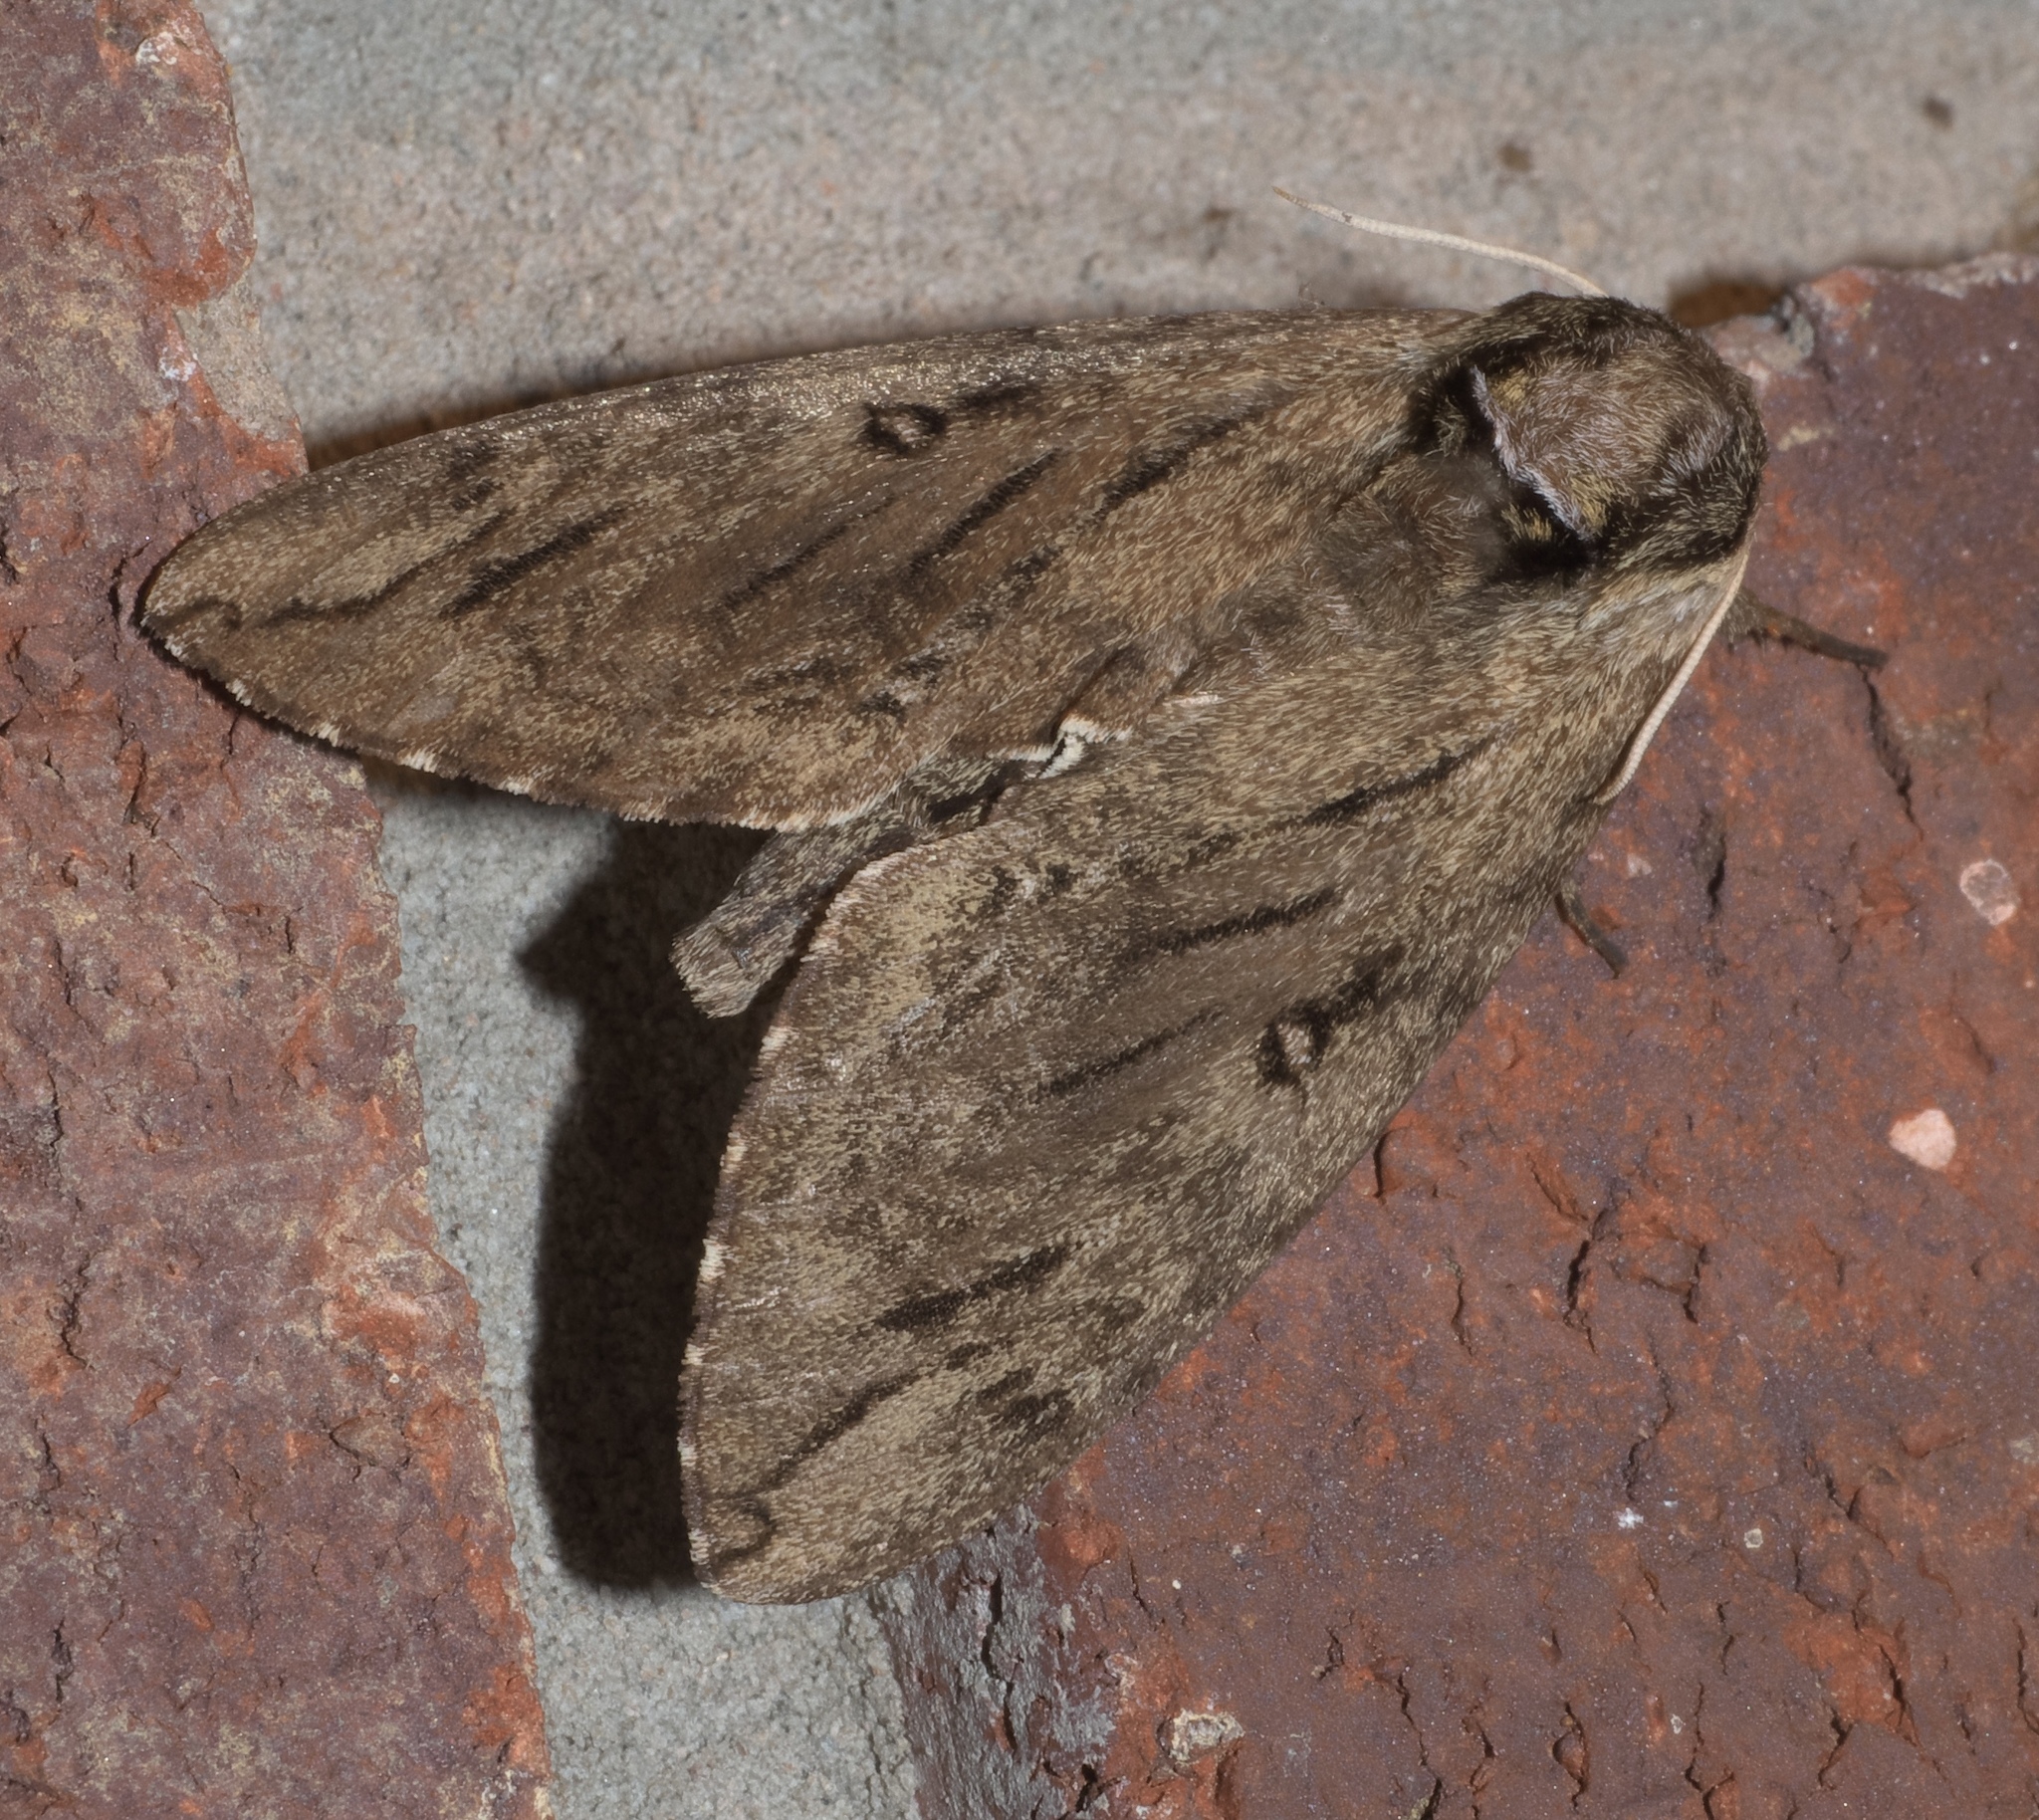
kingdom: Animalia
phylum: Arthropoda
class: Insecta
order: Lepidoptera
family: Sphingidae
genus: Ceratomia
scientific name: Ceratomia catalpae
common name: Catalpa hornworm
